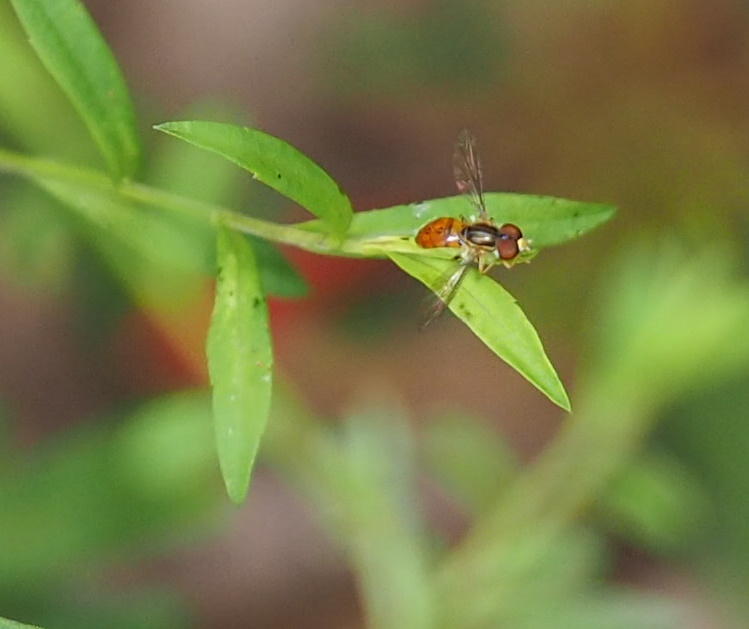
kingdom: Animalia
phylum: Arthropoda
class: Insecta
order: Diptera
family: Syrphidae
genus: Toxomerus
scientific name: Toxomerus boscii
